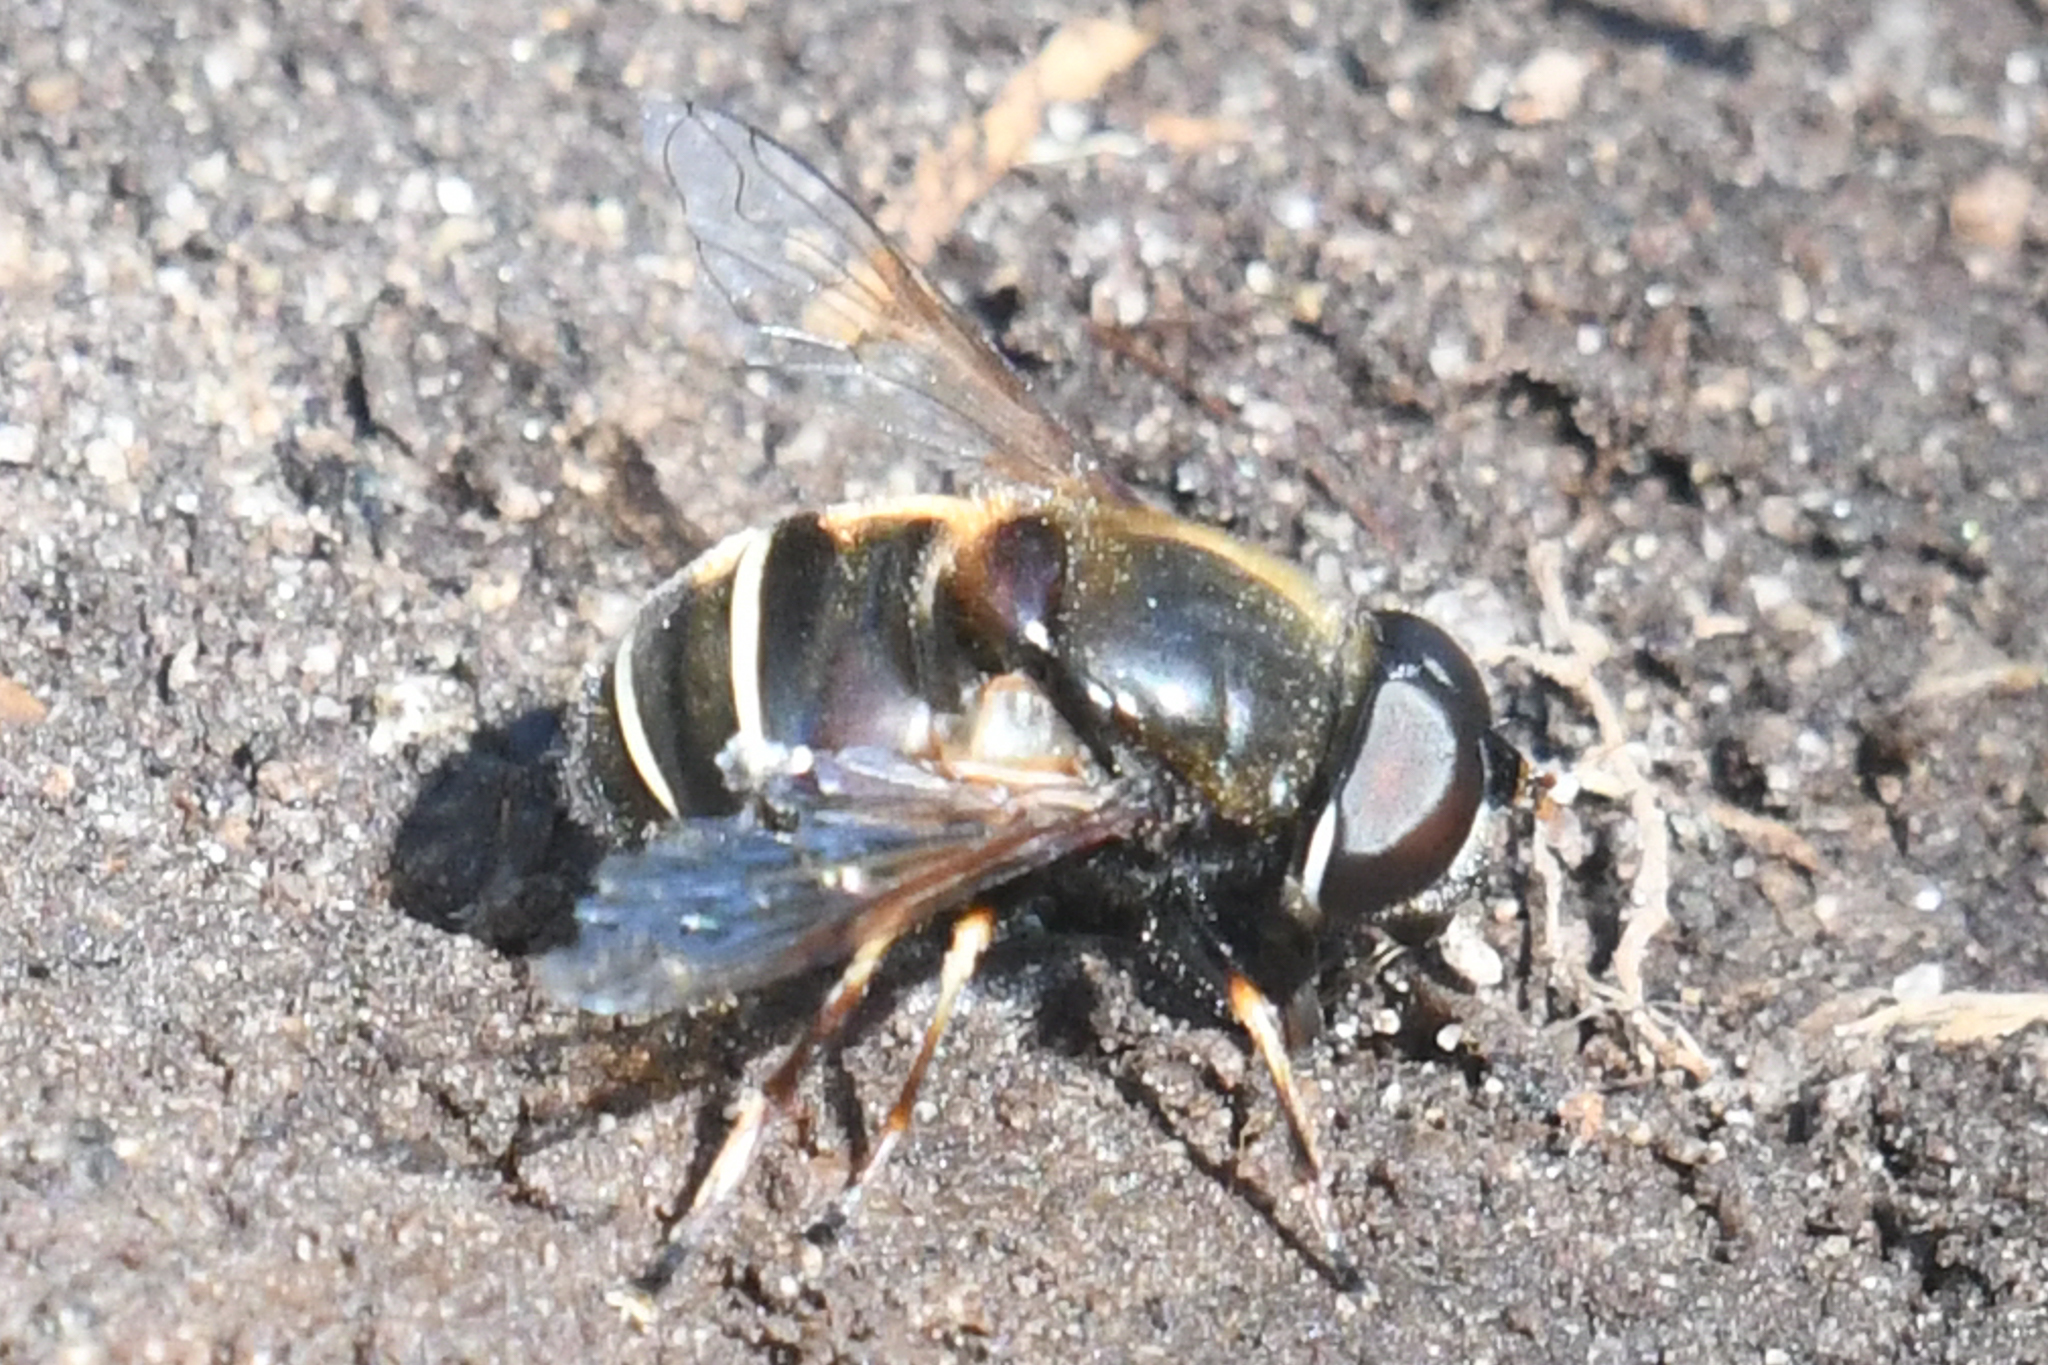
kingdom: Animalia
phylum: Arthropoda
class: Insecta
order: Diptera
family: Syrphidae
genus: Eristalis
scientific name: Eristalis cryptarum
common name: Bog hoverfly
